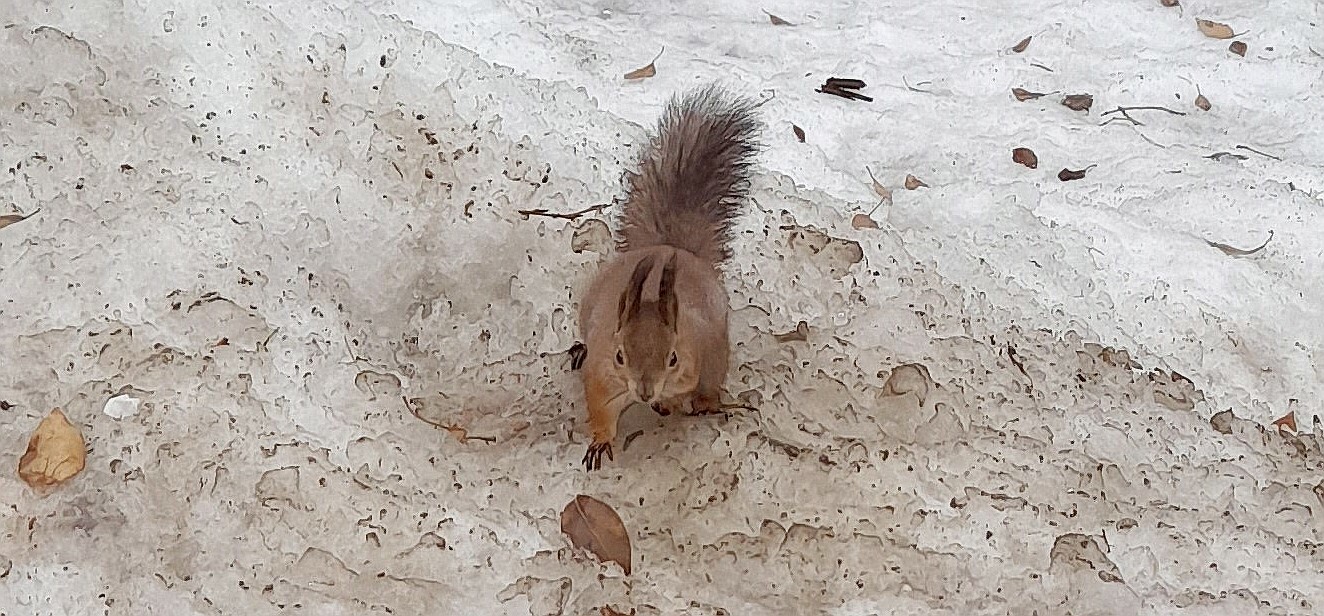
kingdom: Animalia
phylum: Chordata
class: Mammalia
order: Rodentia
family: Sciuridae
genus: Sciurus
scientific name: Sciurus vulgaris
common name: Eurasian red squirrel
